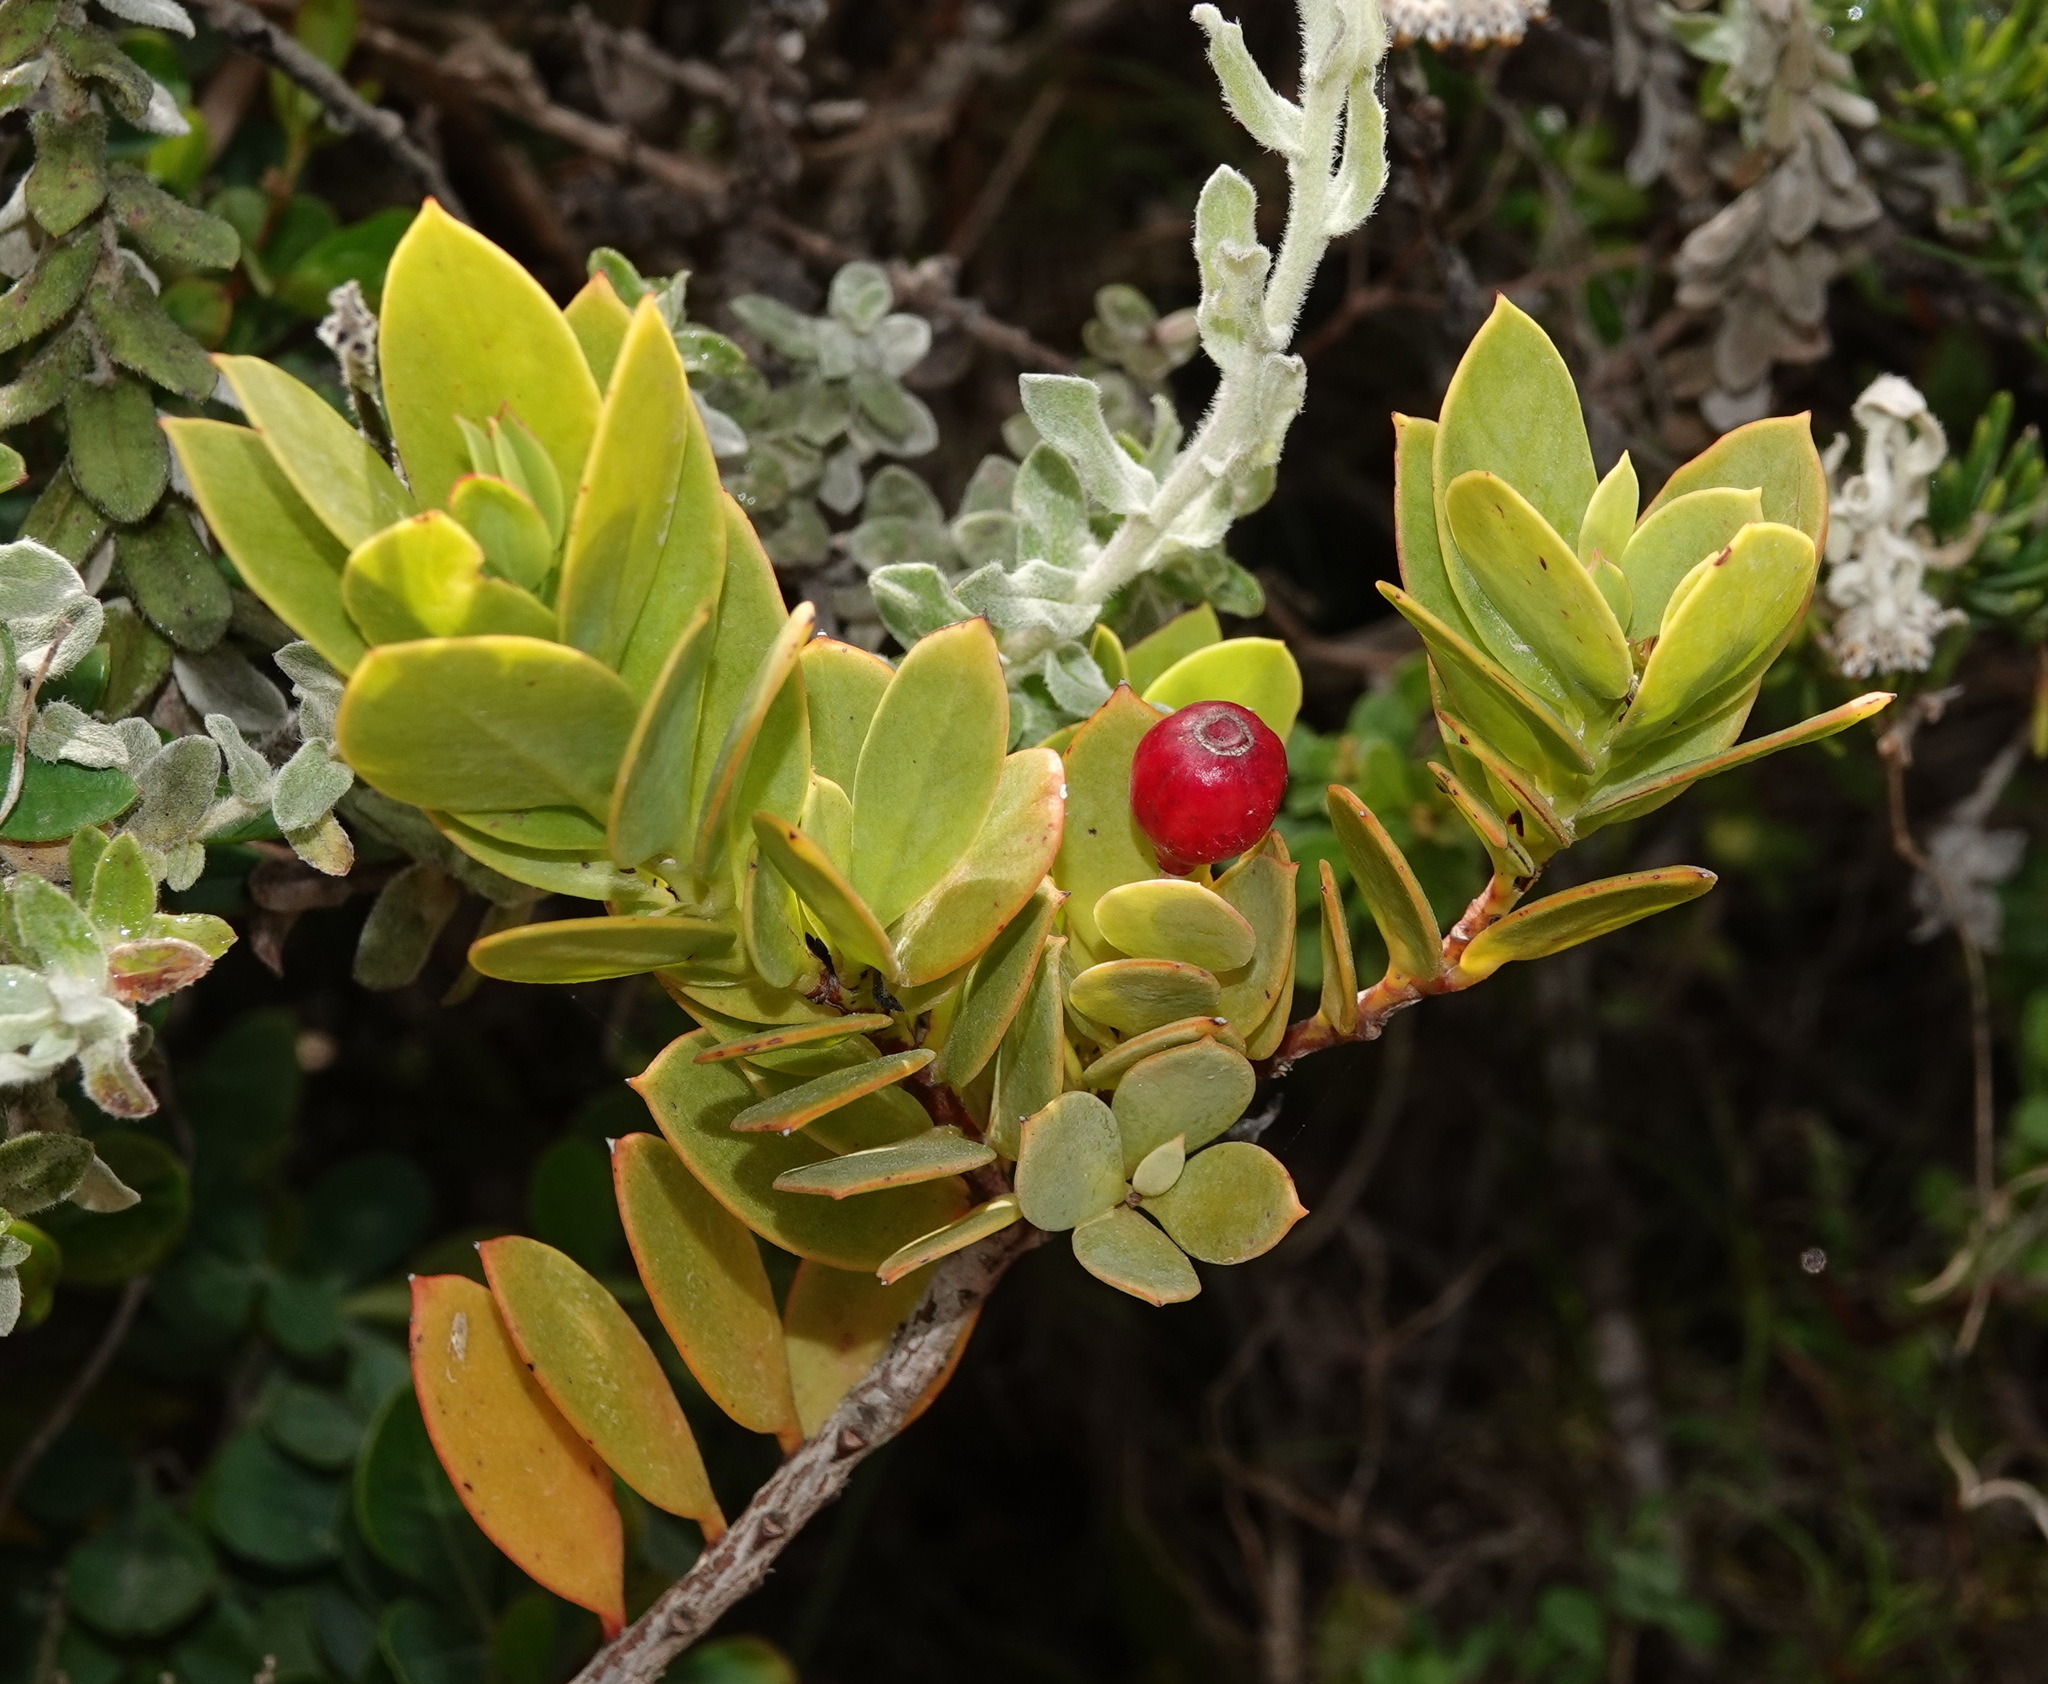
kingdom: Plantae
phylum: Tracheophyta
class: Magnoliopsida
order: Santalales
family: Santalaceae
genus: Osyris
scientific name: Osyris compressa
